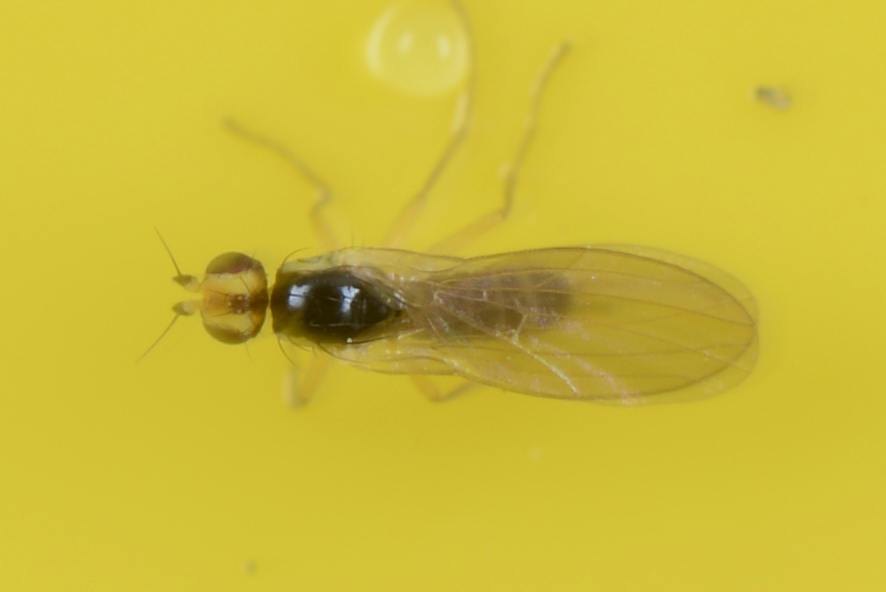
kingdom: Animalia
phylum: Arthropoda
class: Insecta
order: Diptera
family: Agromyzidae
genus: Cerodontha
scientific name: Cerodontha angustipennis
